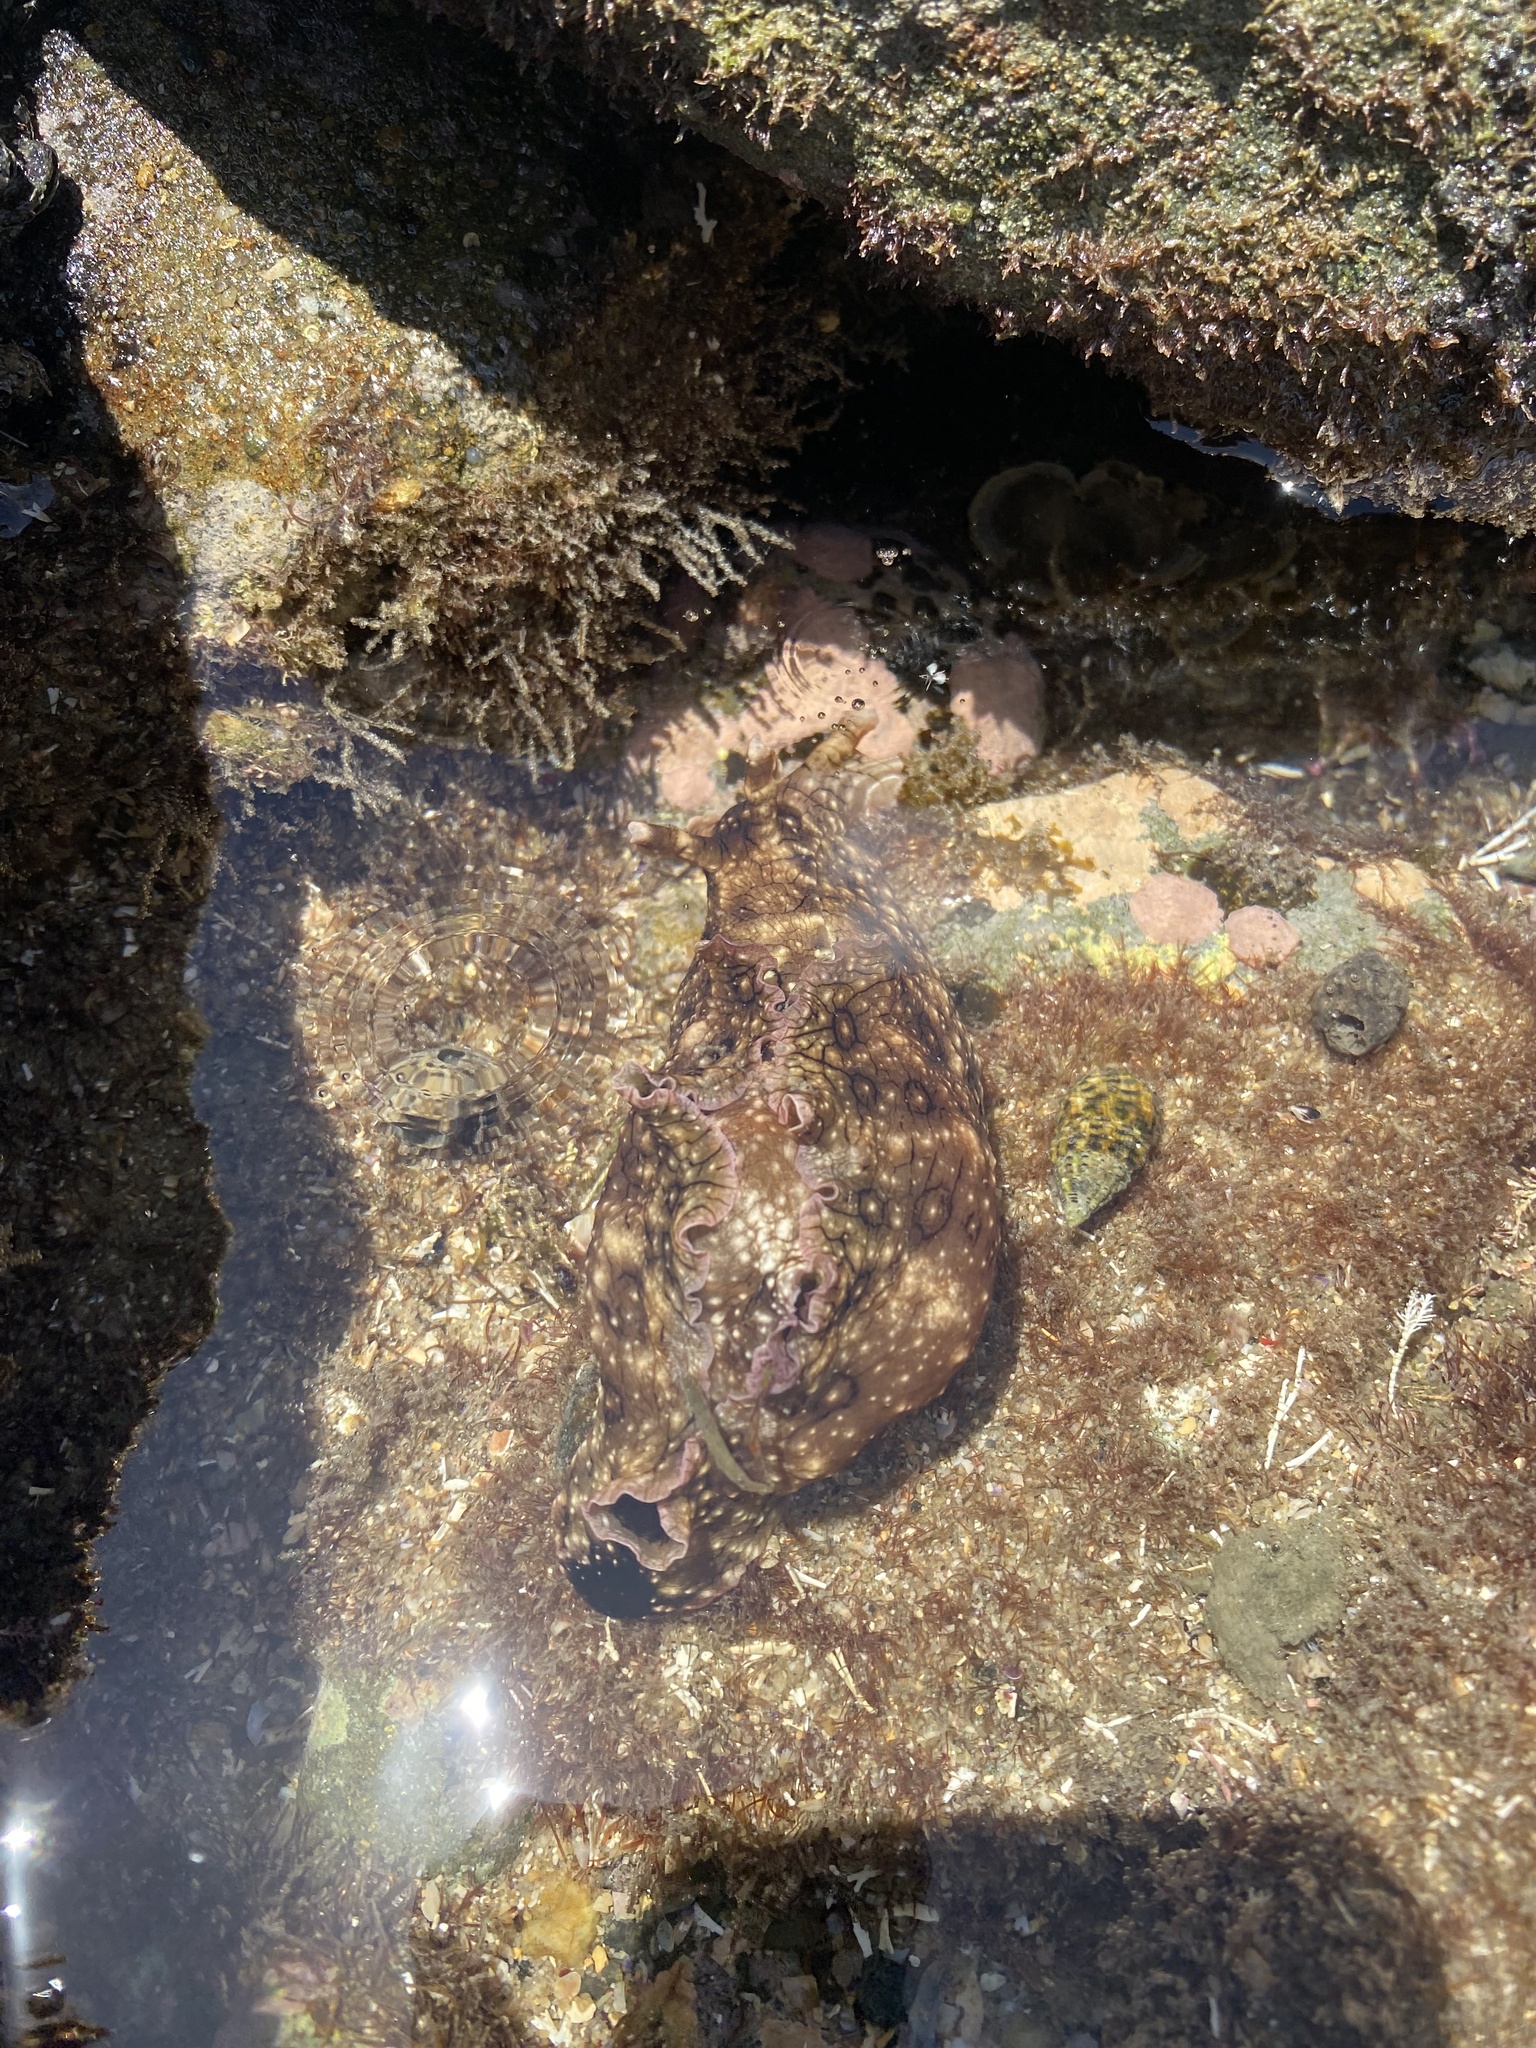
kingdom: Animalia
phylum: Mollusca
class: Gastropoda
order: Aplysiida
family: Aplysiidae
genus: Aplysia
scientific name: Aplysia argus
